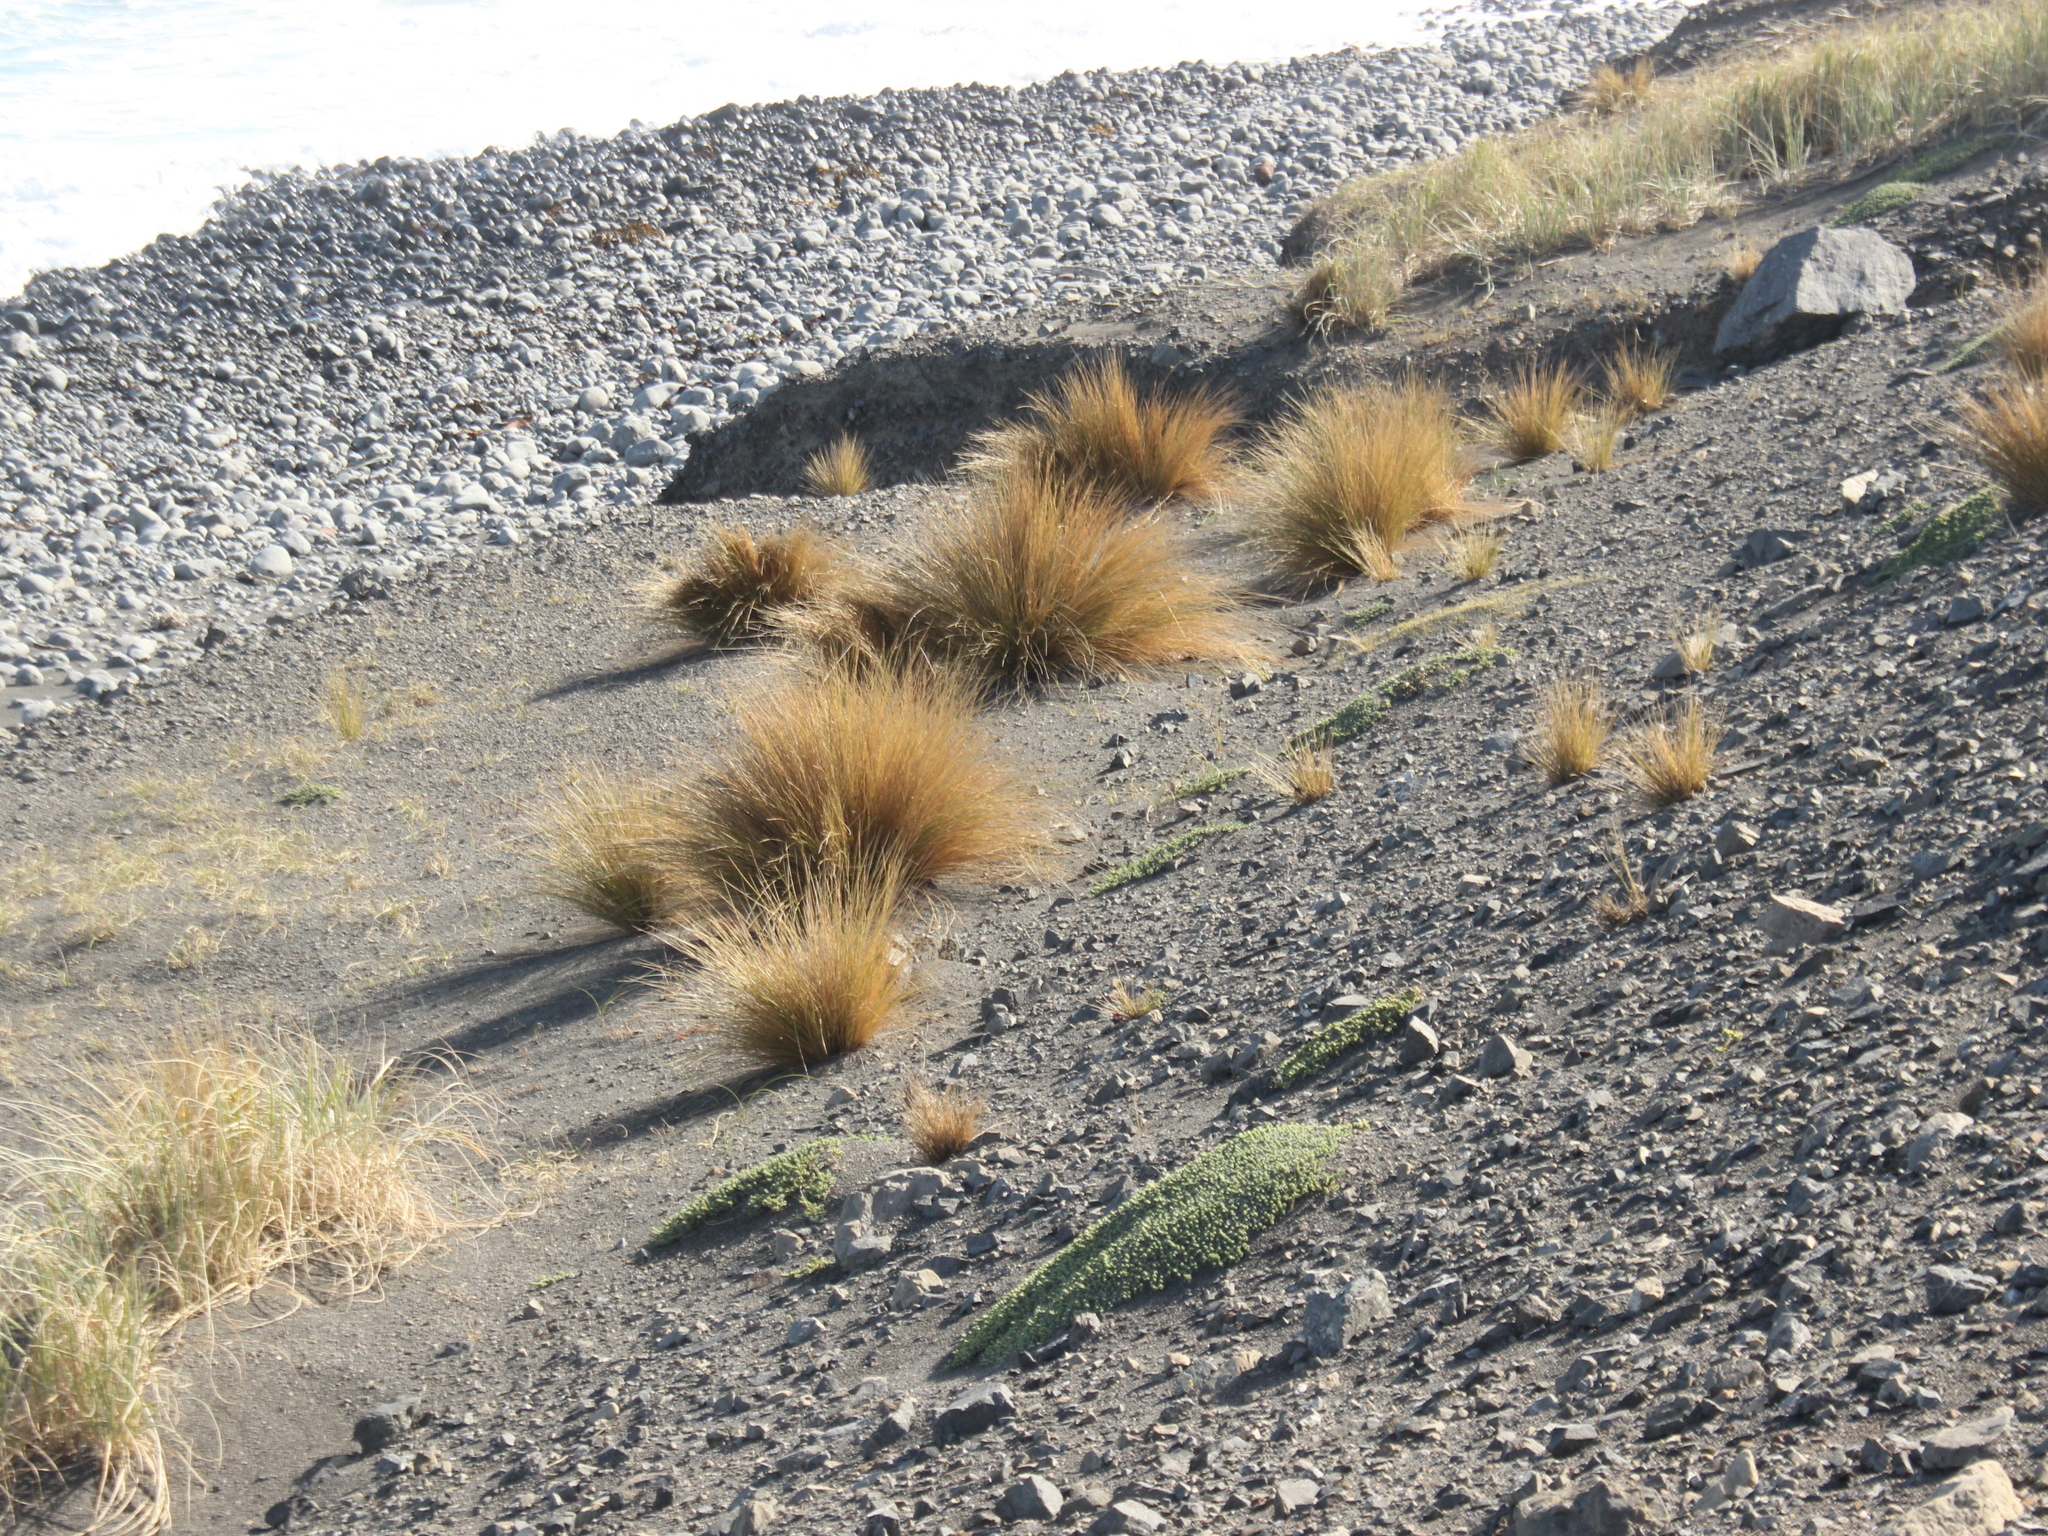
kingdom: Plantae
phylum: Tracheophyta
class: Liliopsida
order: Poales
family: Poaceae
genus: Poa
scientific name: Poa billardierei
